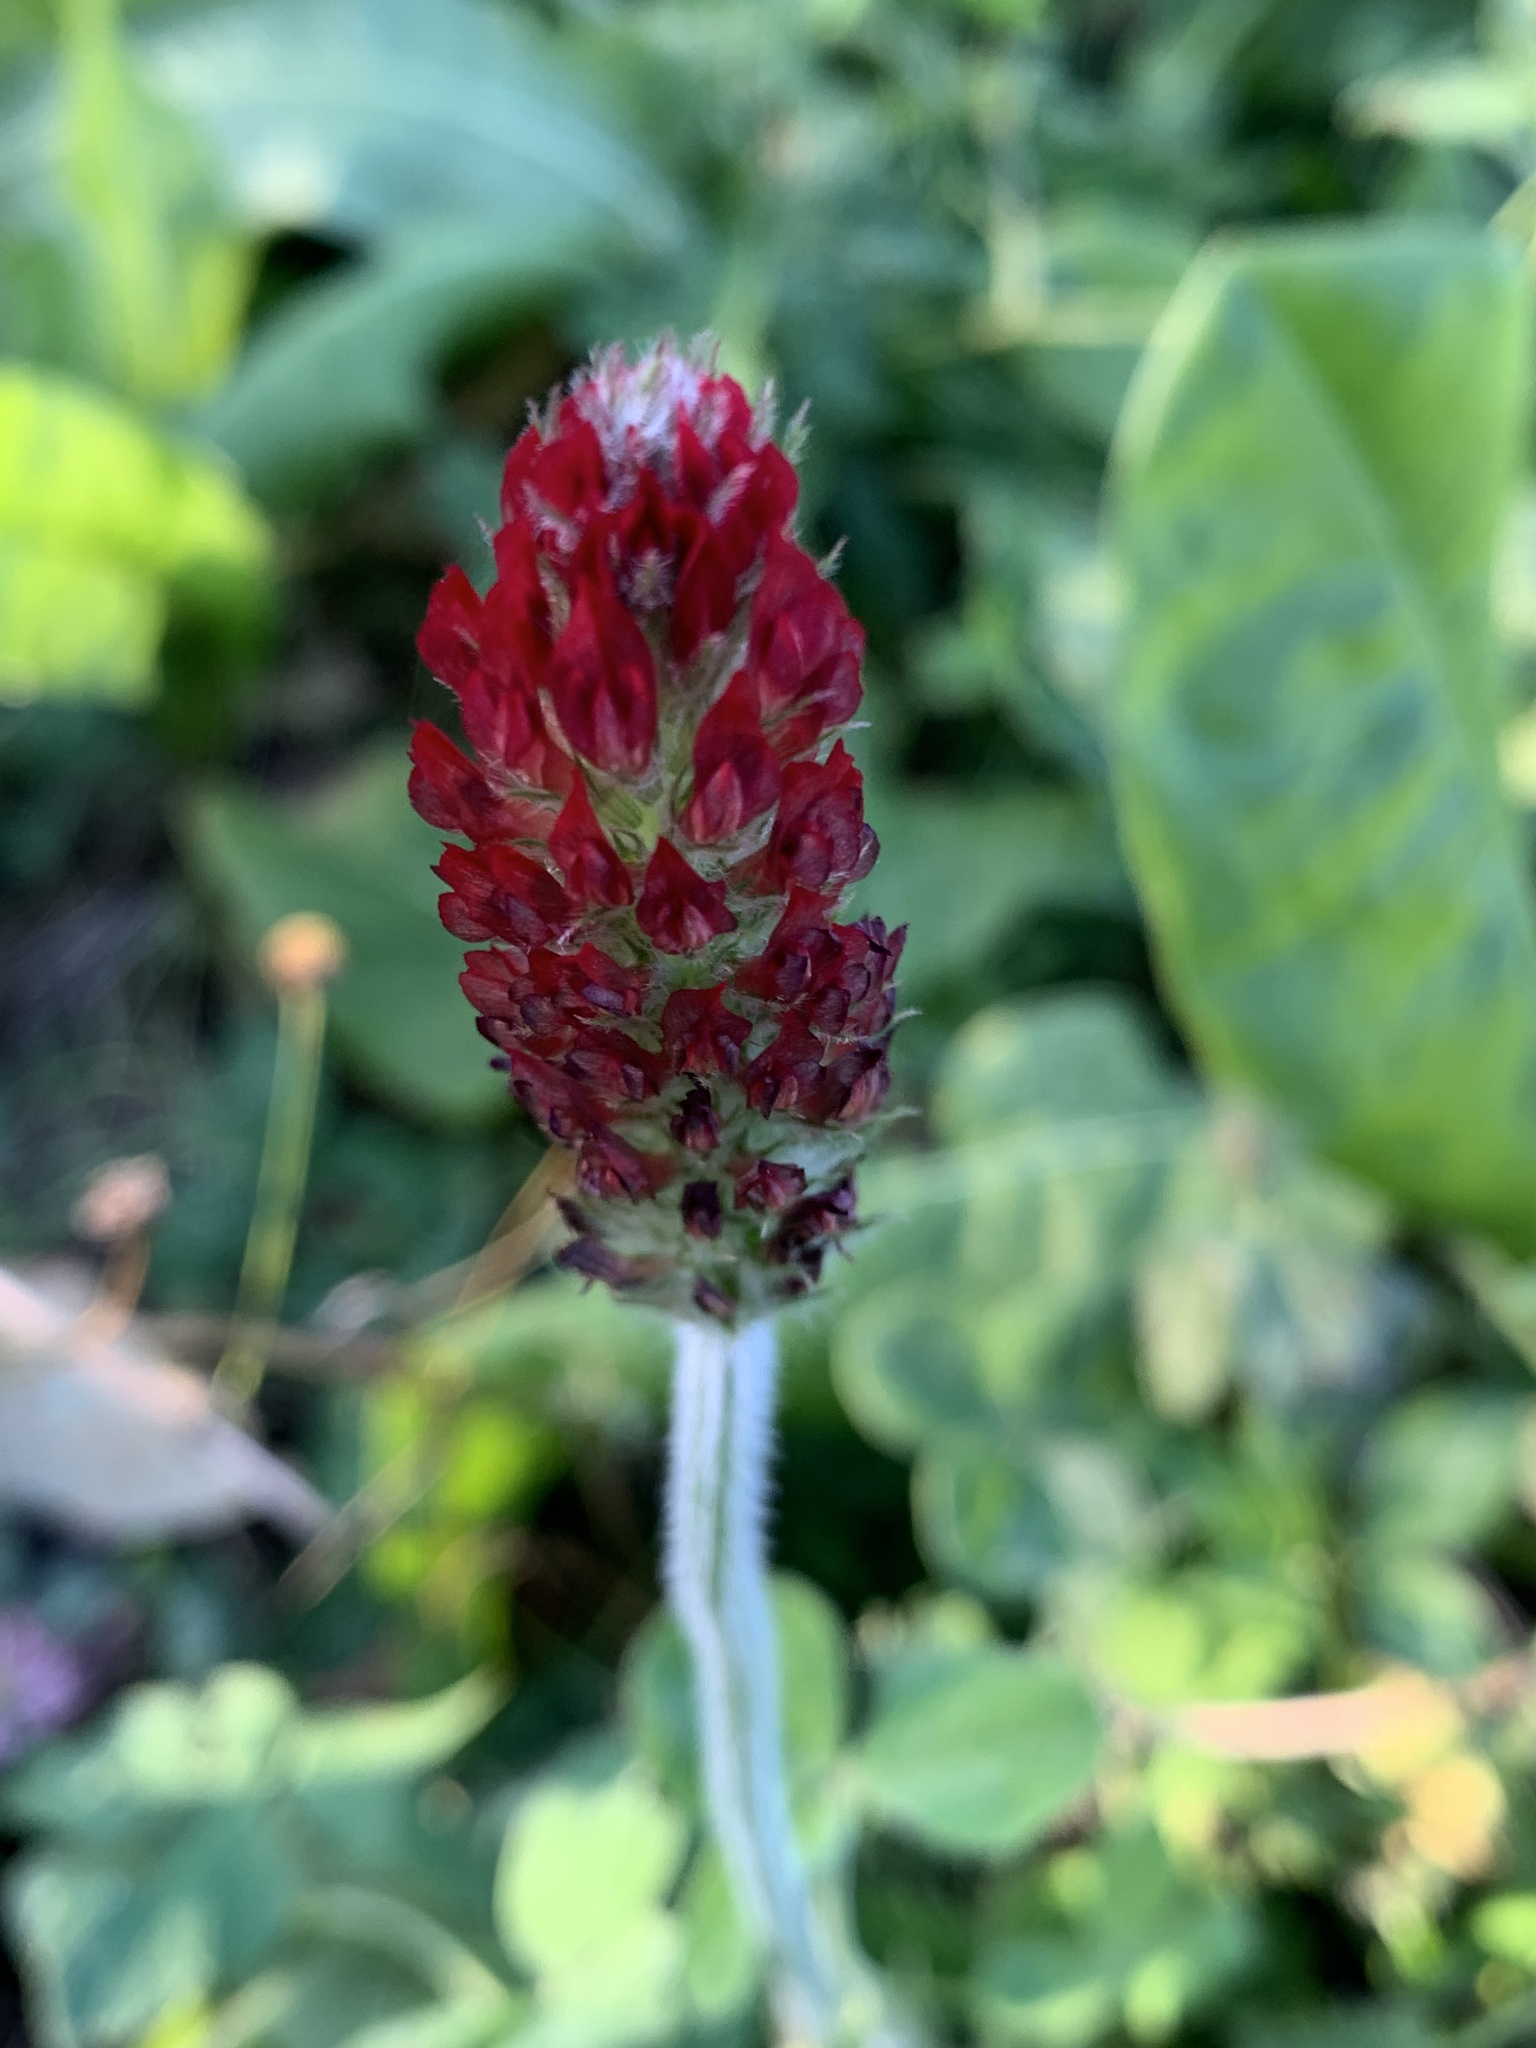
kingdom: Plantae
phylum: Tracheophyta
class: Magnoliopsida
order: Fabales
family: Fabaceae
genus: Trifolium
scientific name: Trifolium incarnatum
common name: Crimson clover
